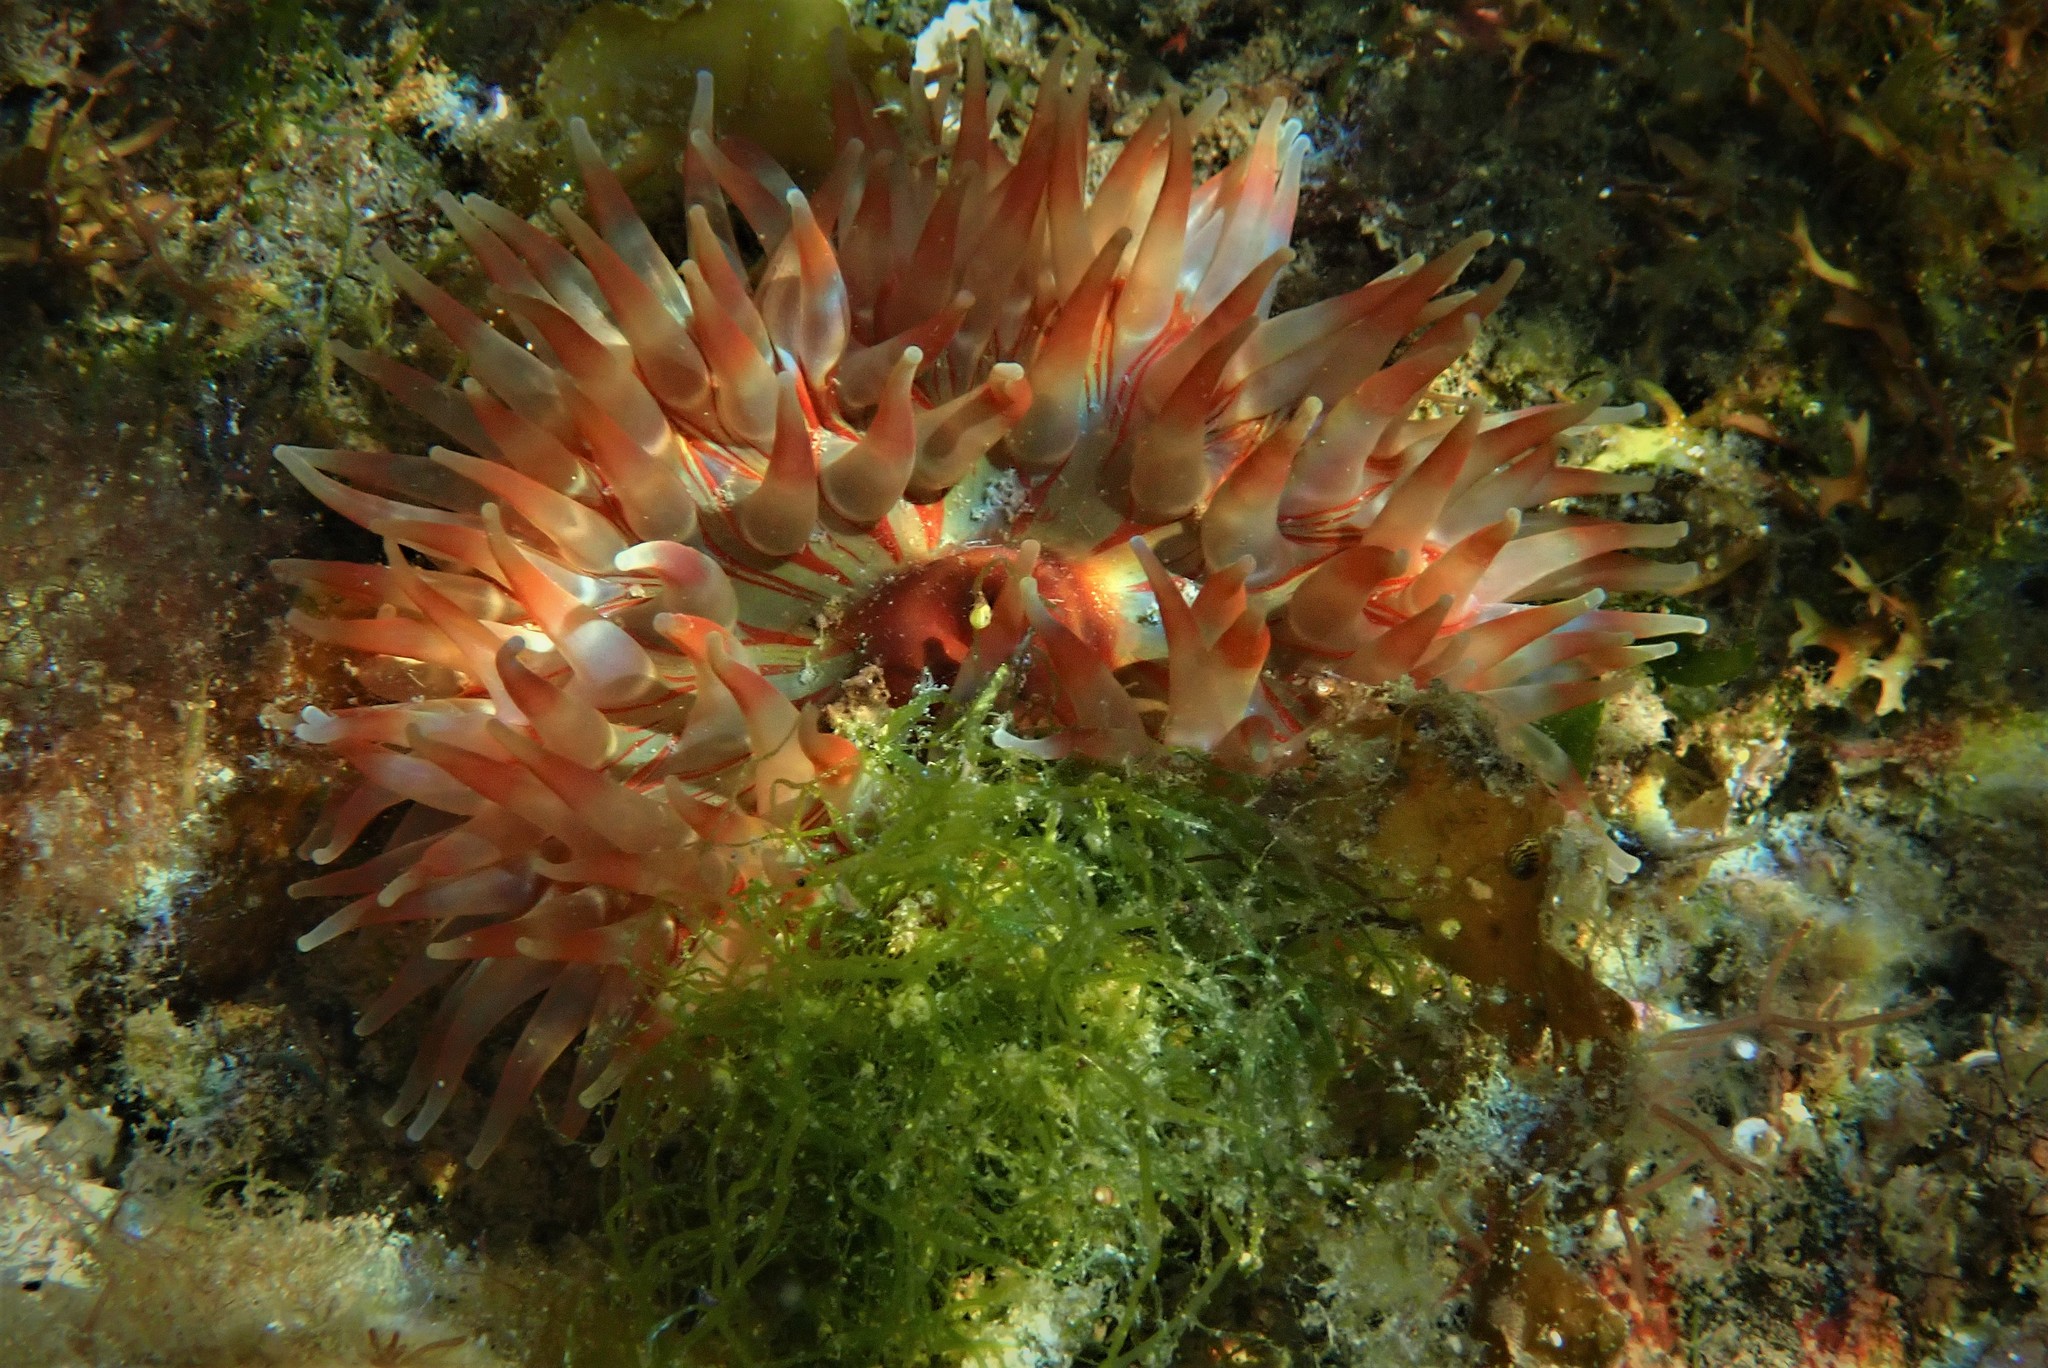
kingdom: Animalia
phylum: Cnidaria
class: Anthozoa
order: Actiniaria
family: Actiniidae
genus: Urticina
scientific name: Urticina felina
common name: Dahlia anemone
